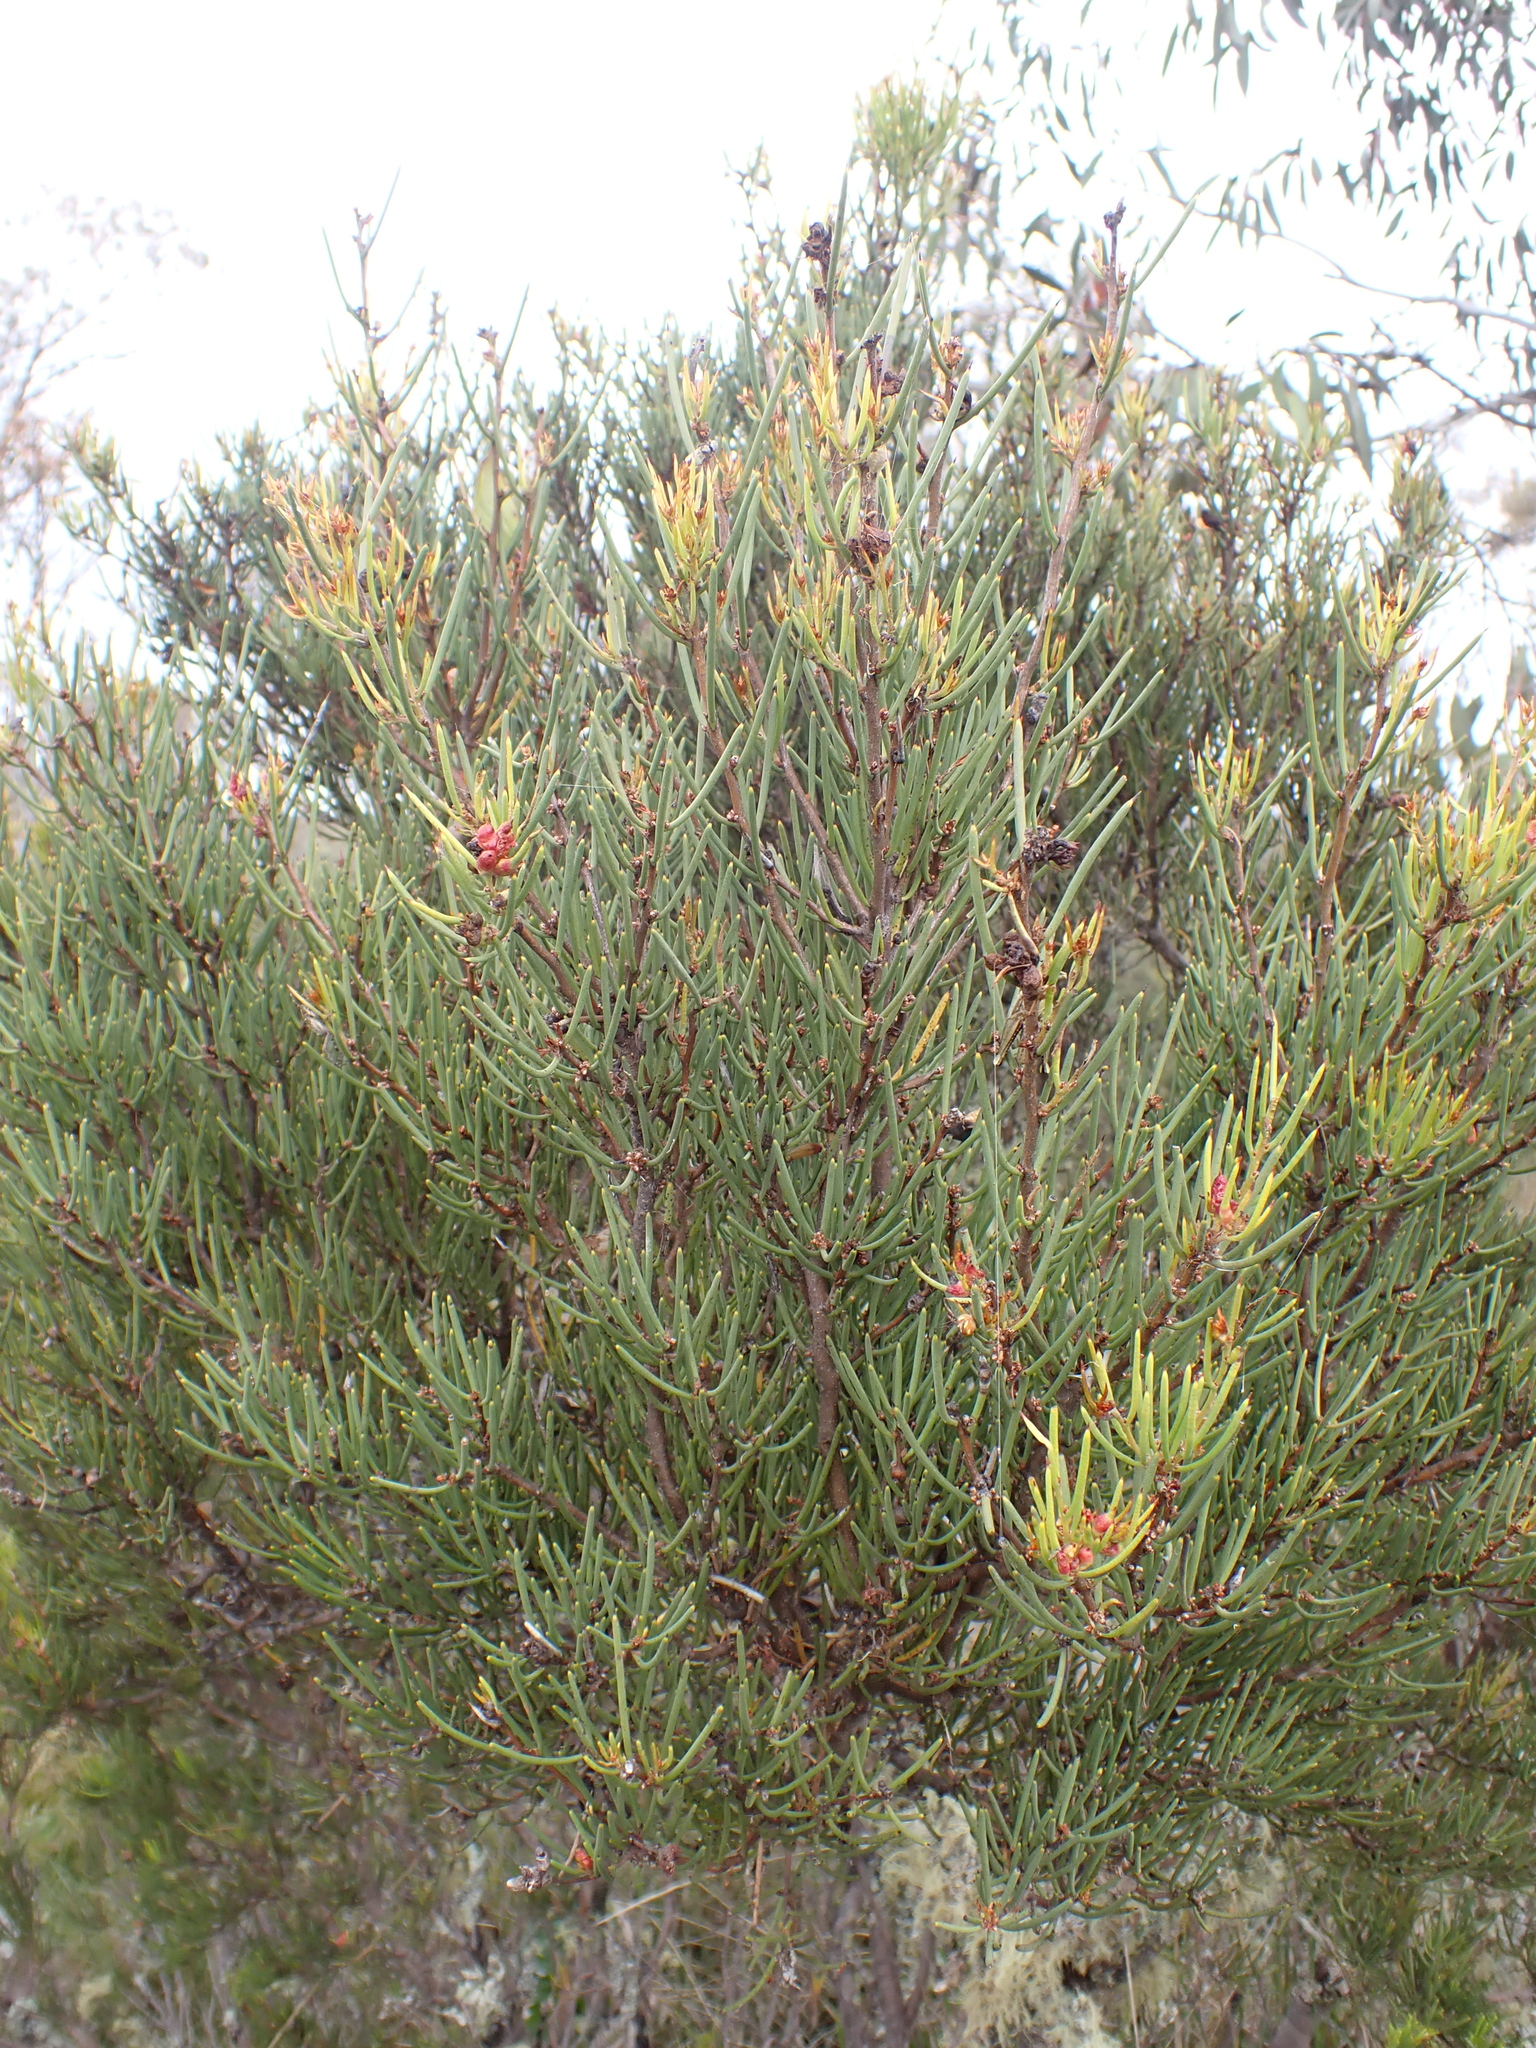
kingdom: Plantae
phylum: Tracheophyta
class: Magnoliopsida
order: Proteales
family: Proteaceae
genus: Hakea
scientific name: Hakea microcarpa
